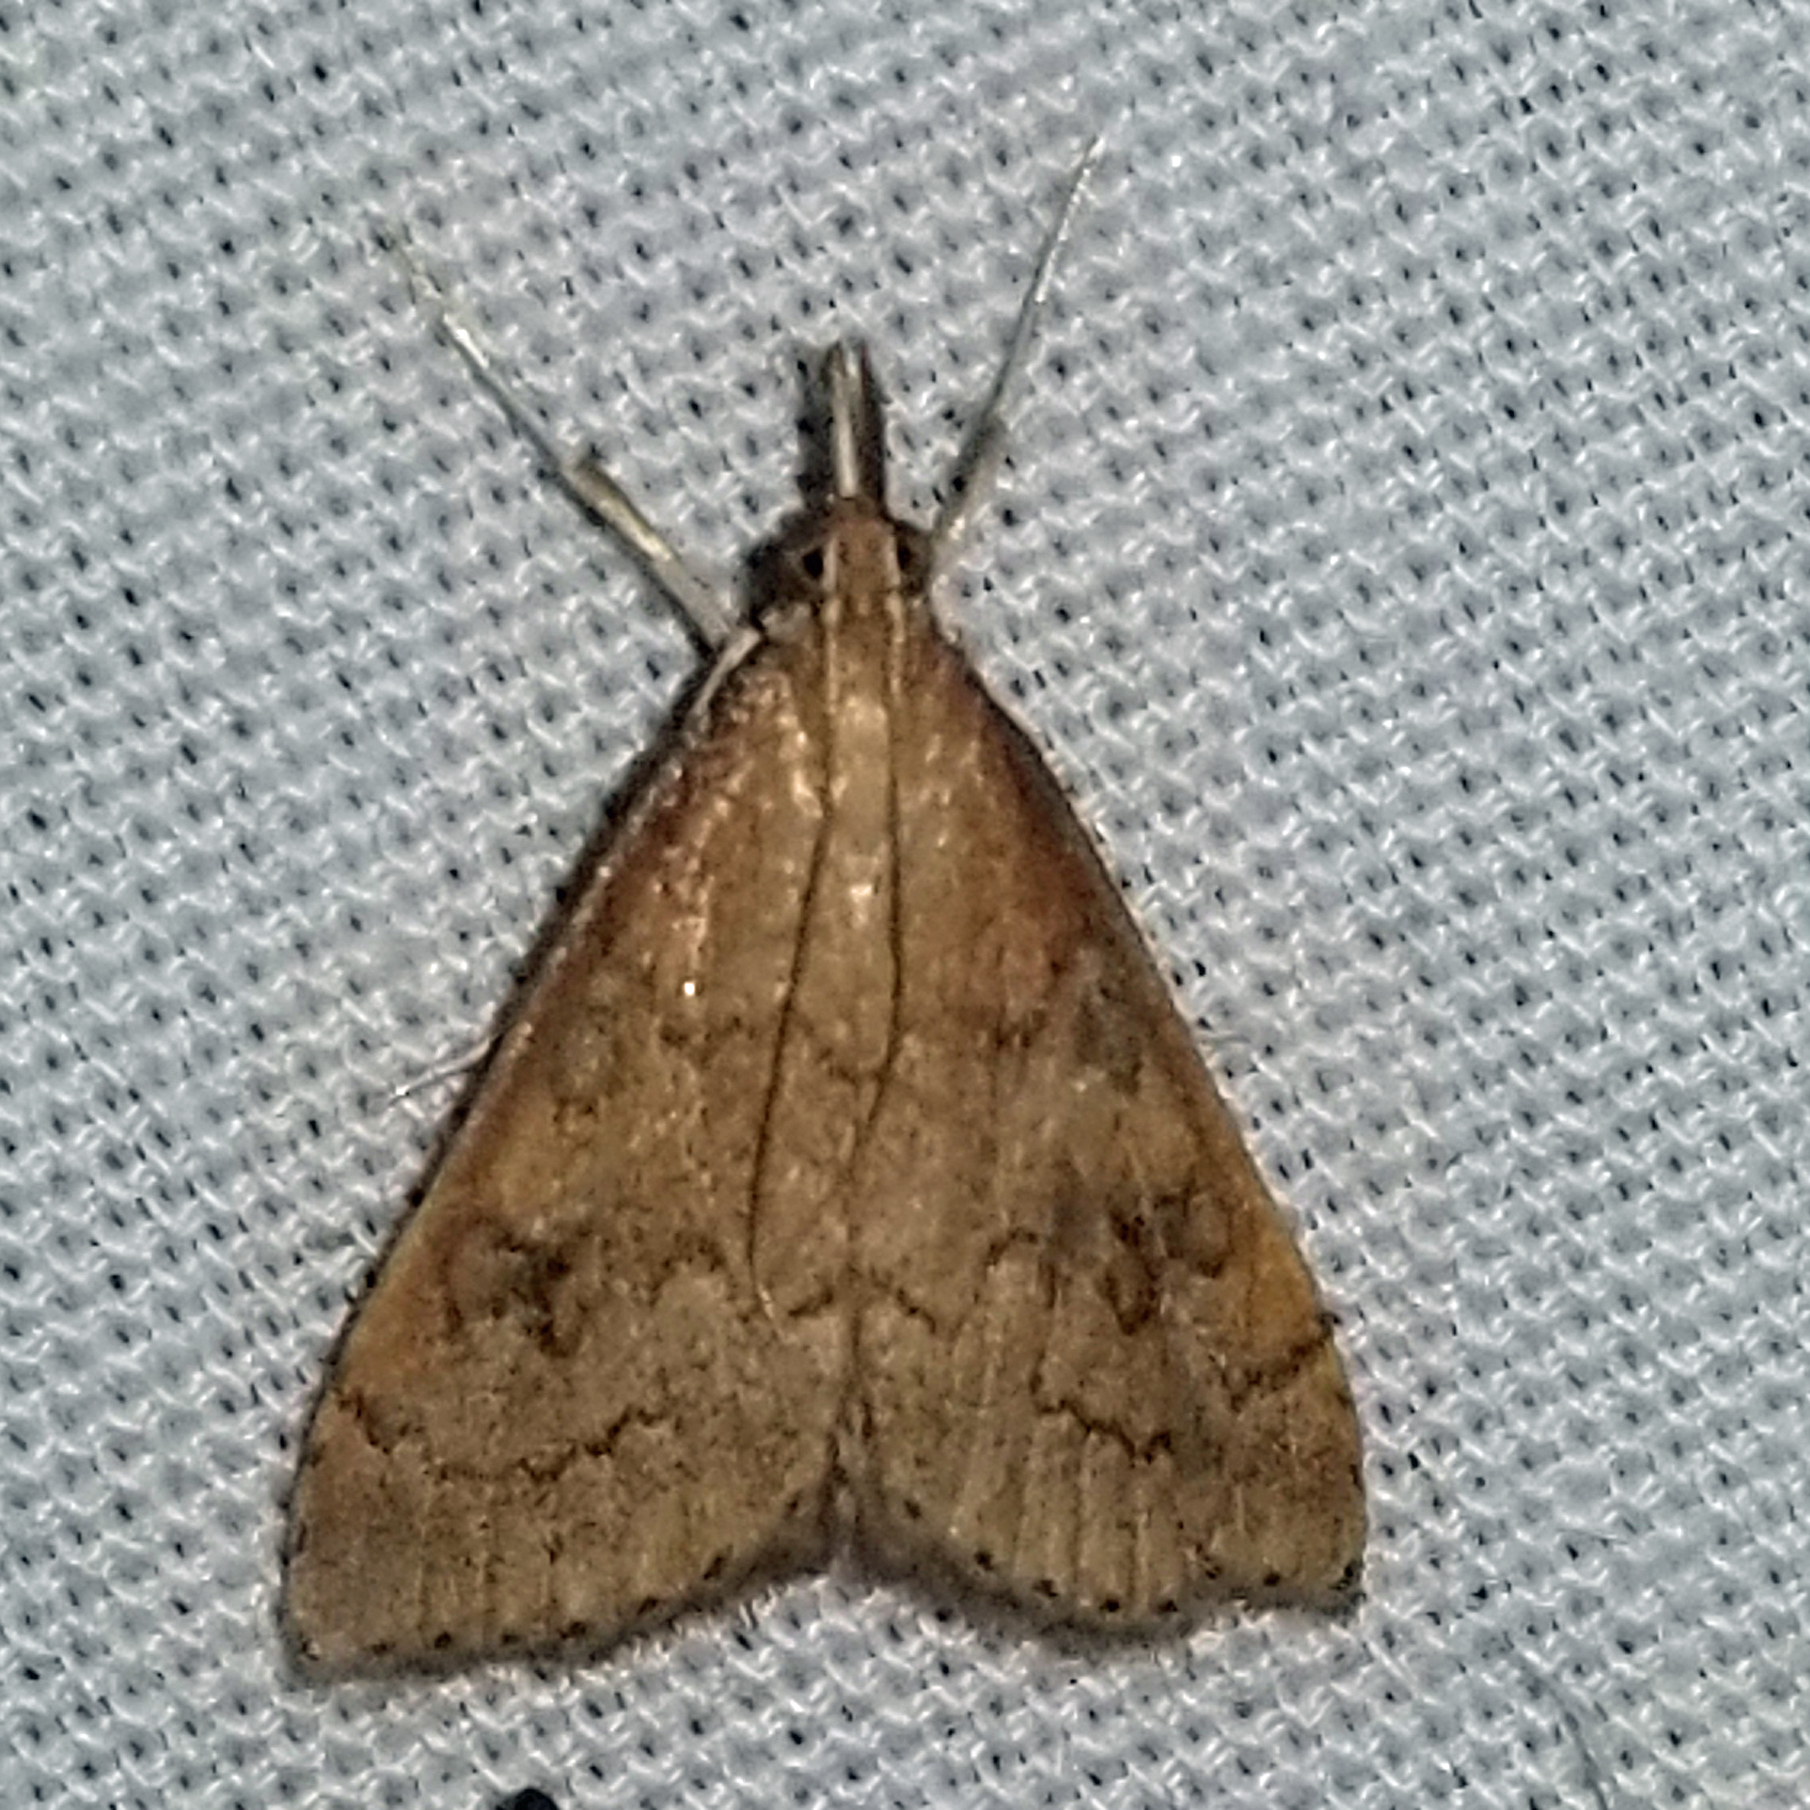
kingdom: Animalia
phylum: Arthropoda
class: Insecta
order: Lepidoptera
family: Crambidae
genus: Udea
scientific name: Udea rubigalis
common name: Celery leaftier moth
